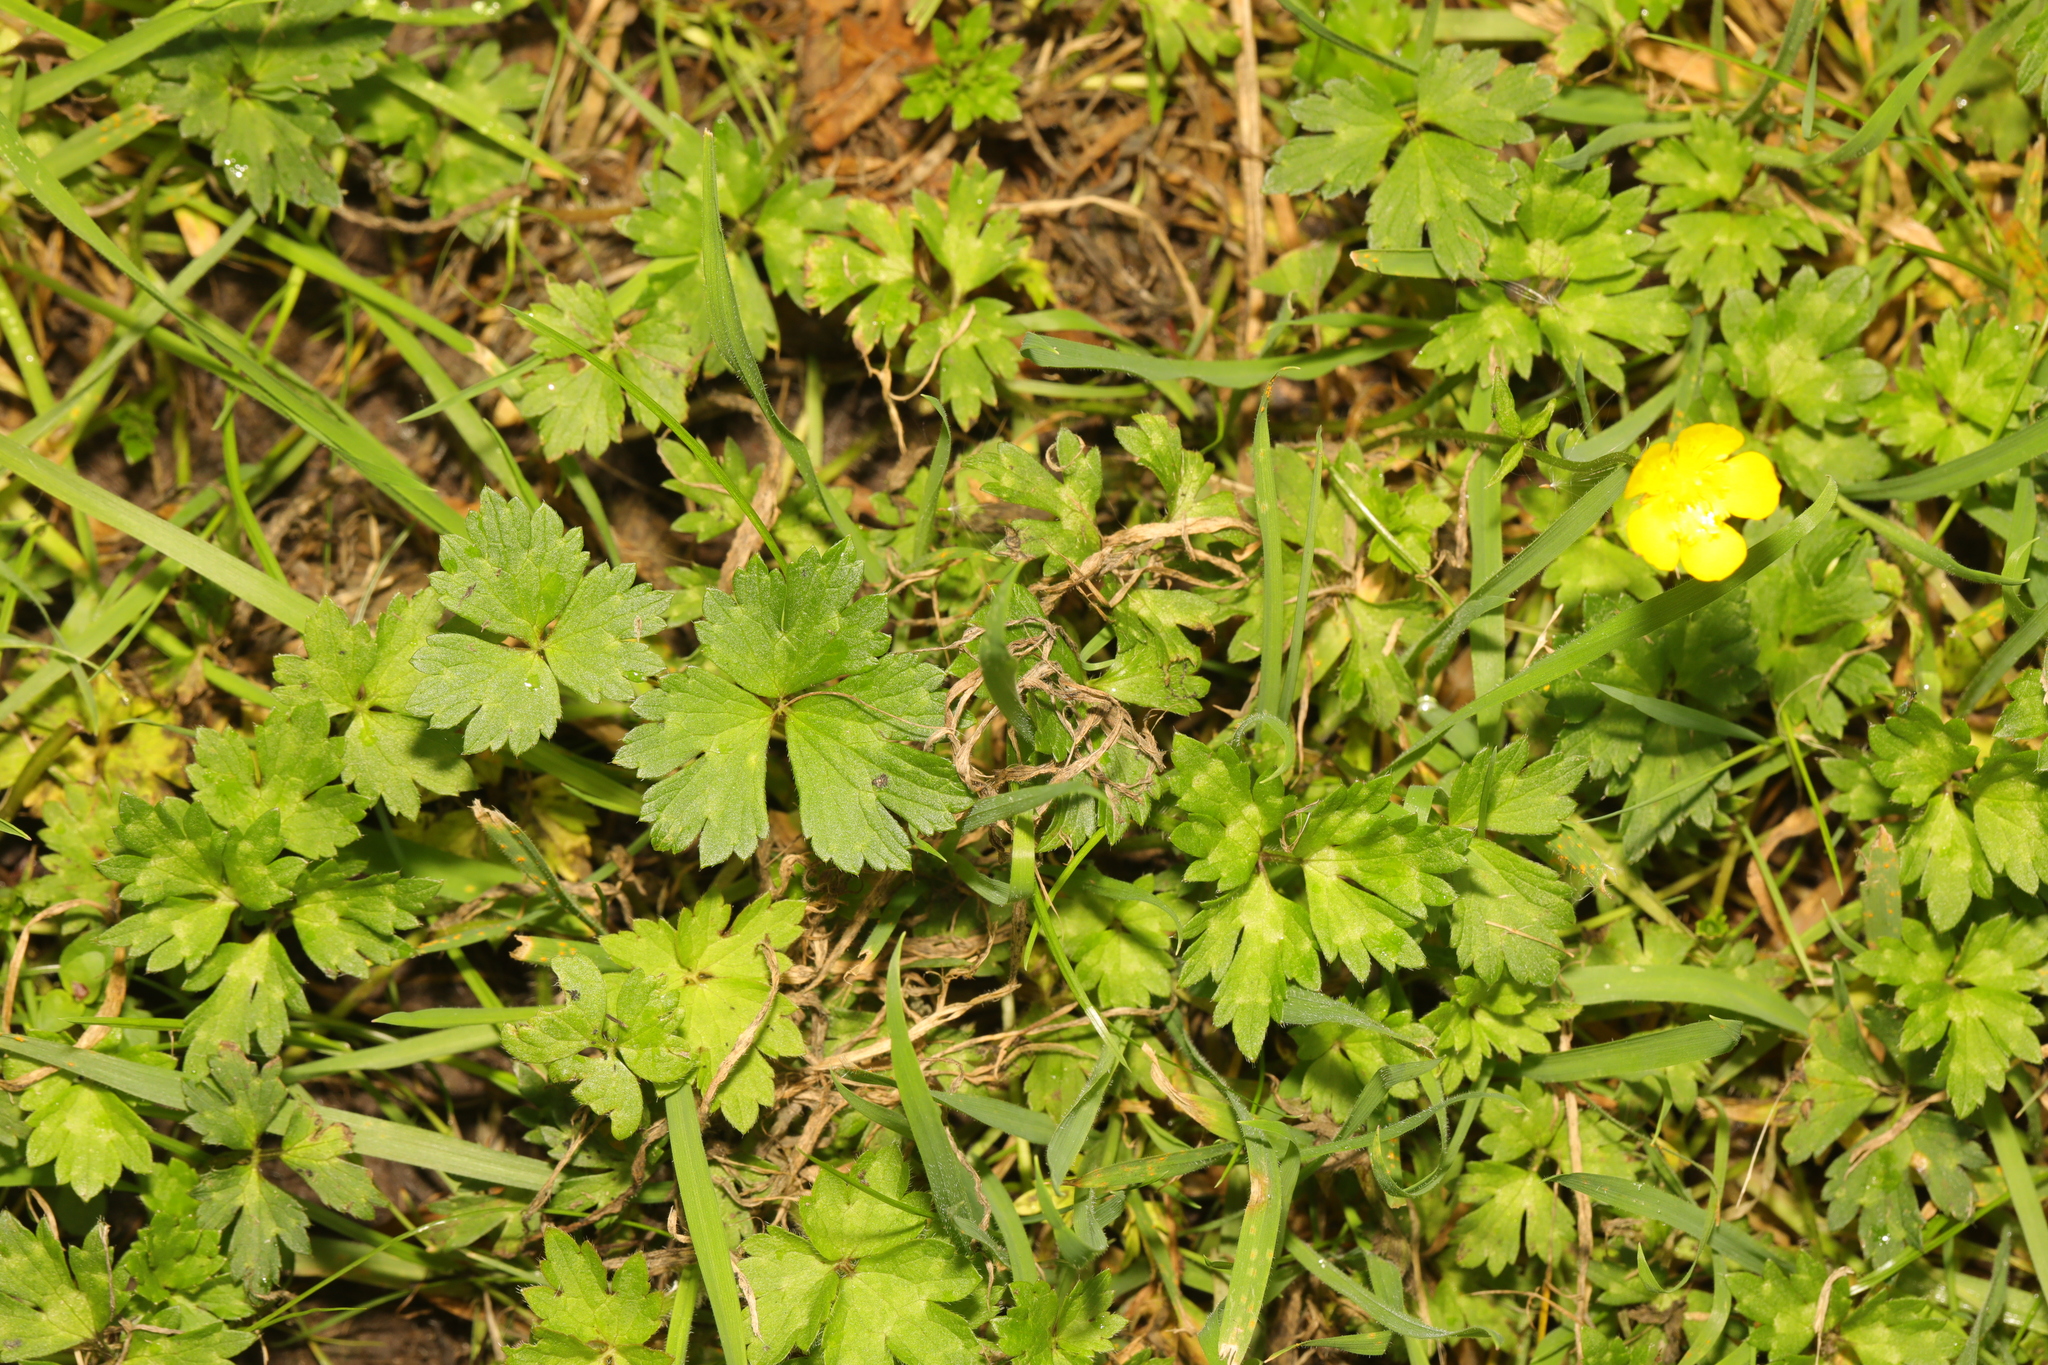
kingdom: Plantae
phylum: Tracheophyta
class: Magnoliopsida
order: Ranunculales
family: Ranunculaceae
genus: Ranunculus
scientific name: Ranunculus repens
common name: Creeping buttercup
